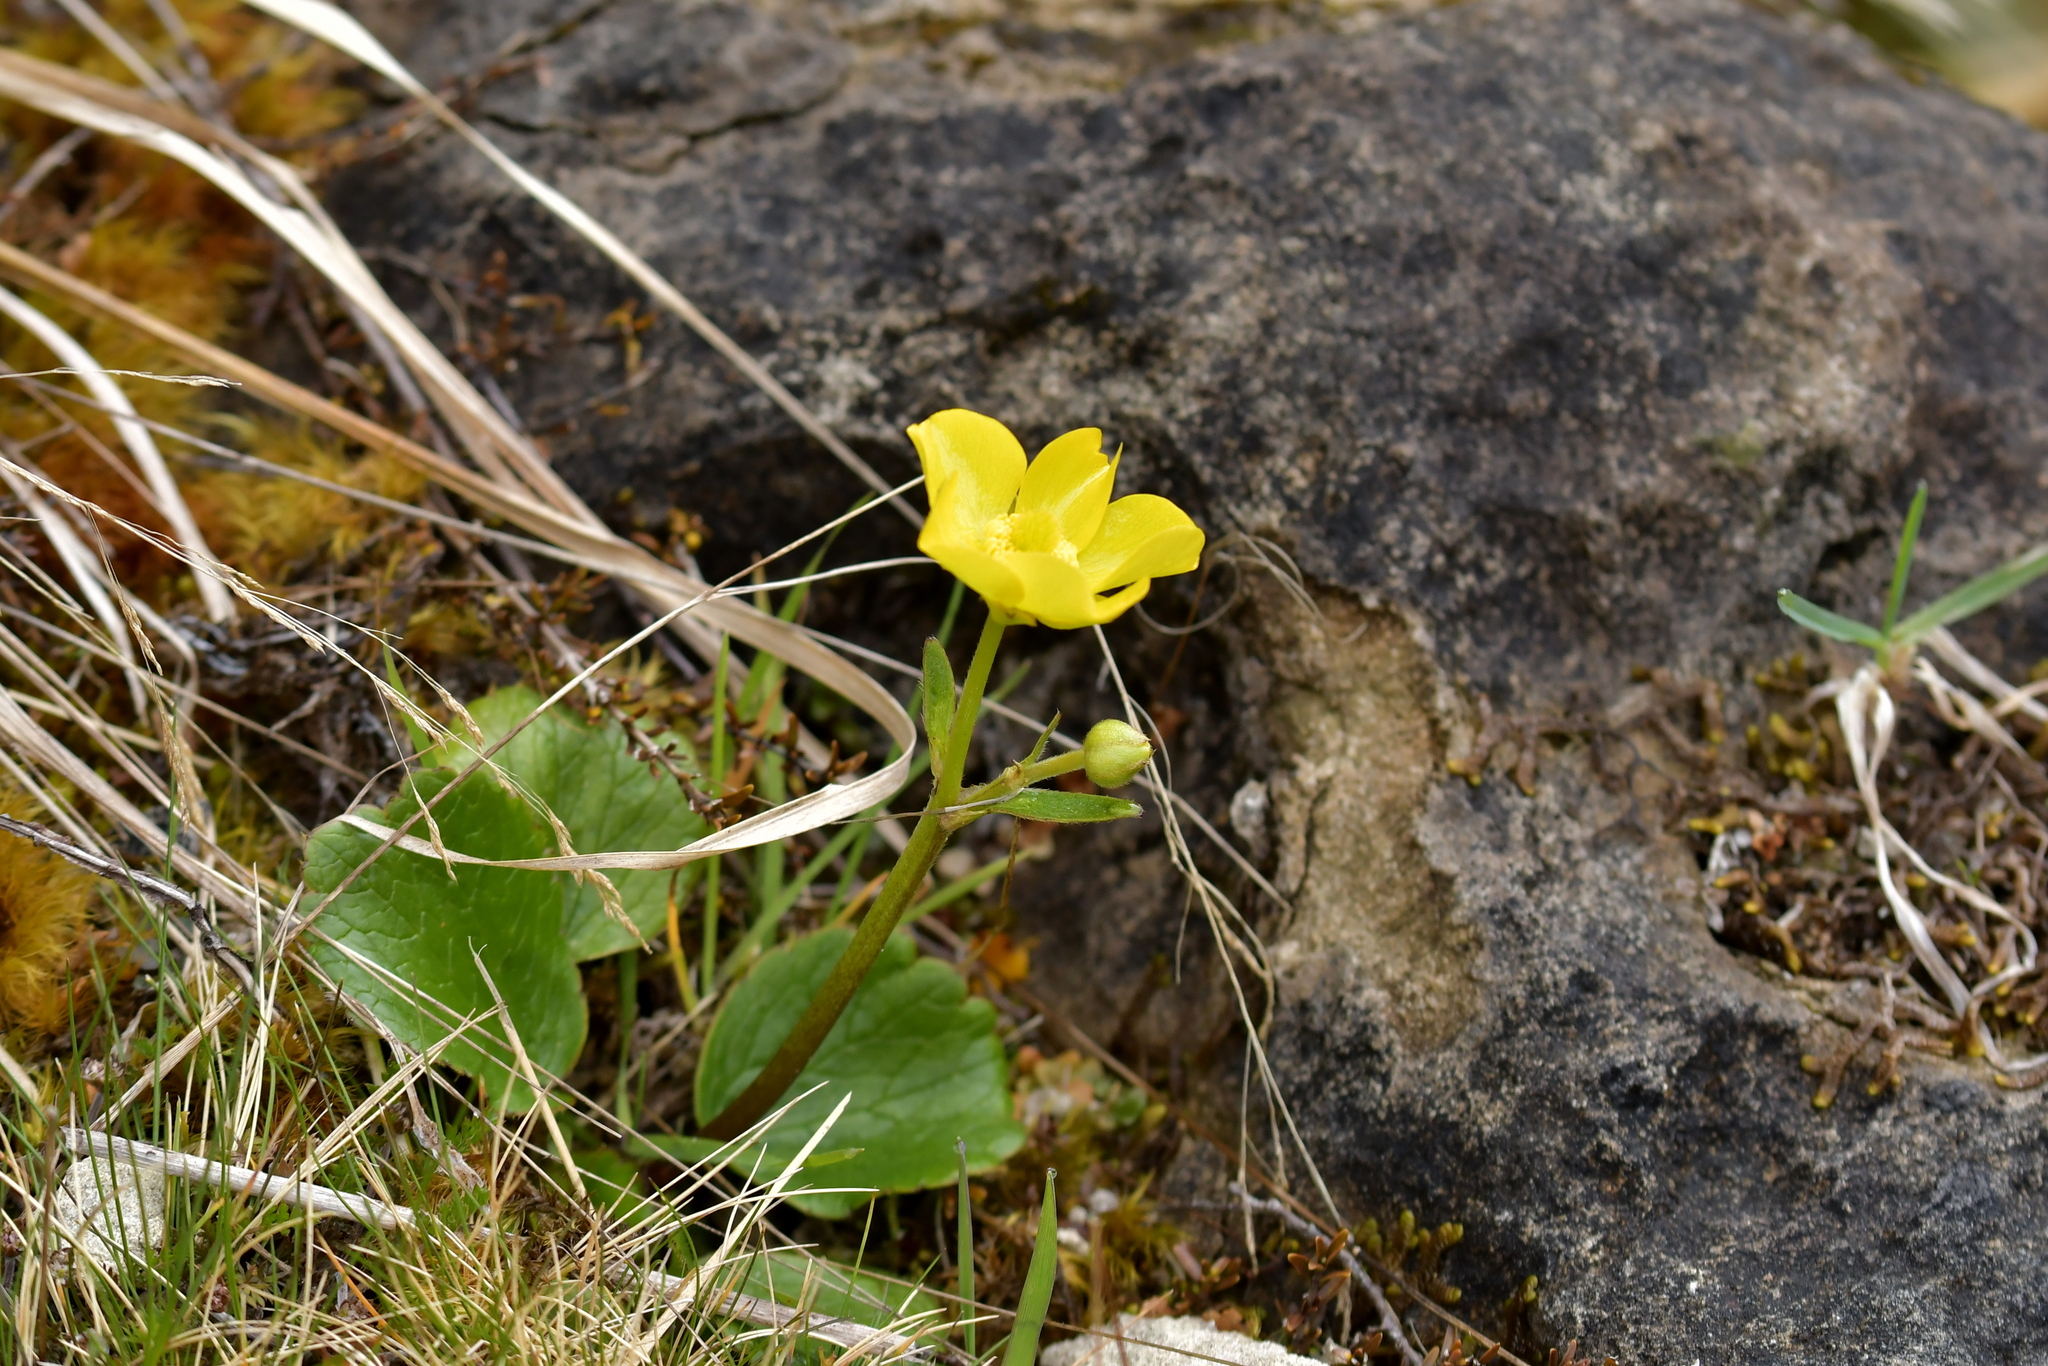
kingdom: Plantae
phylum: Tracheophyta
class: Magnoliopsida
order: Ranunculales
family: Ranunculaceae
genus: Ranunculus
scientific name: Ranunculus insignis
